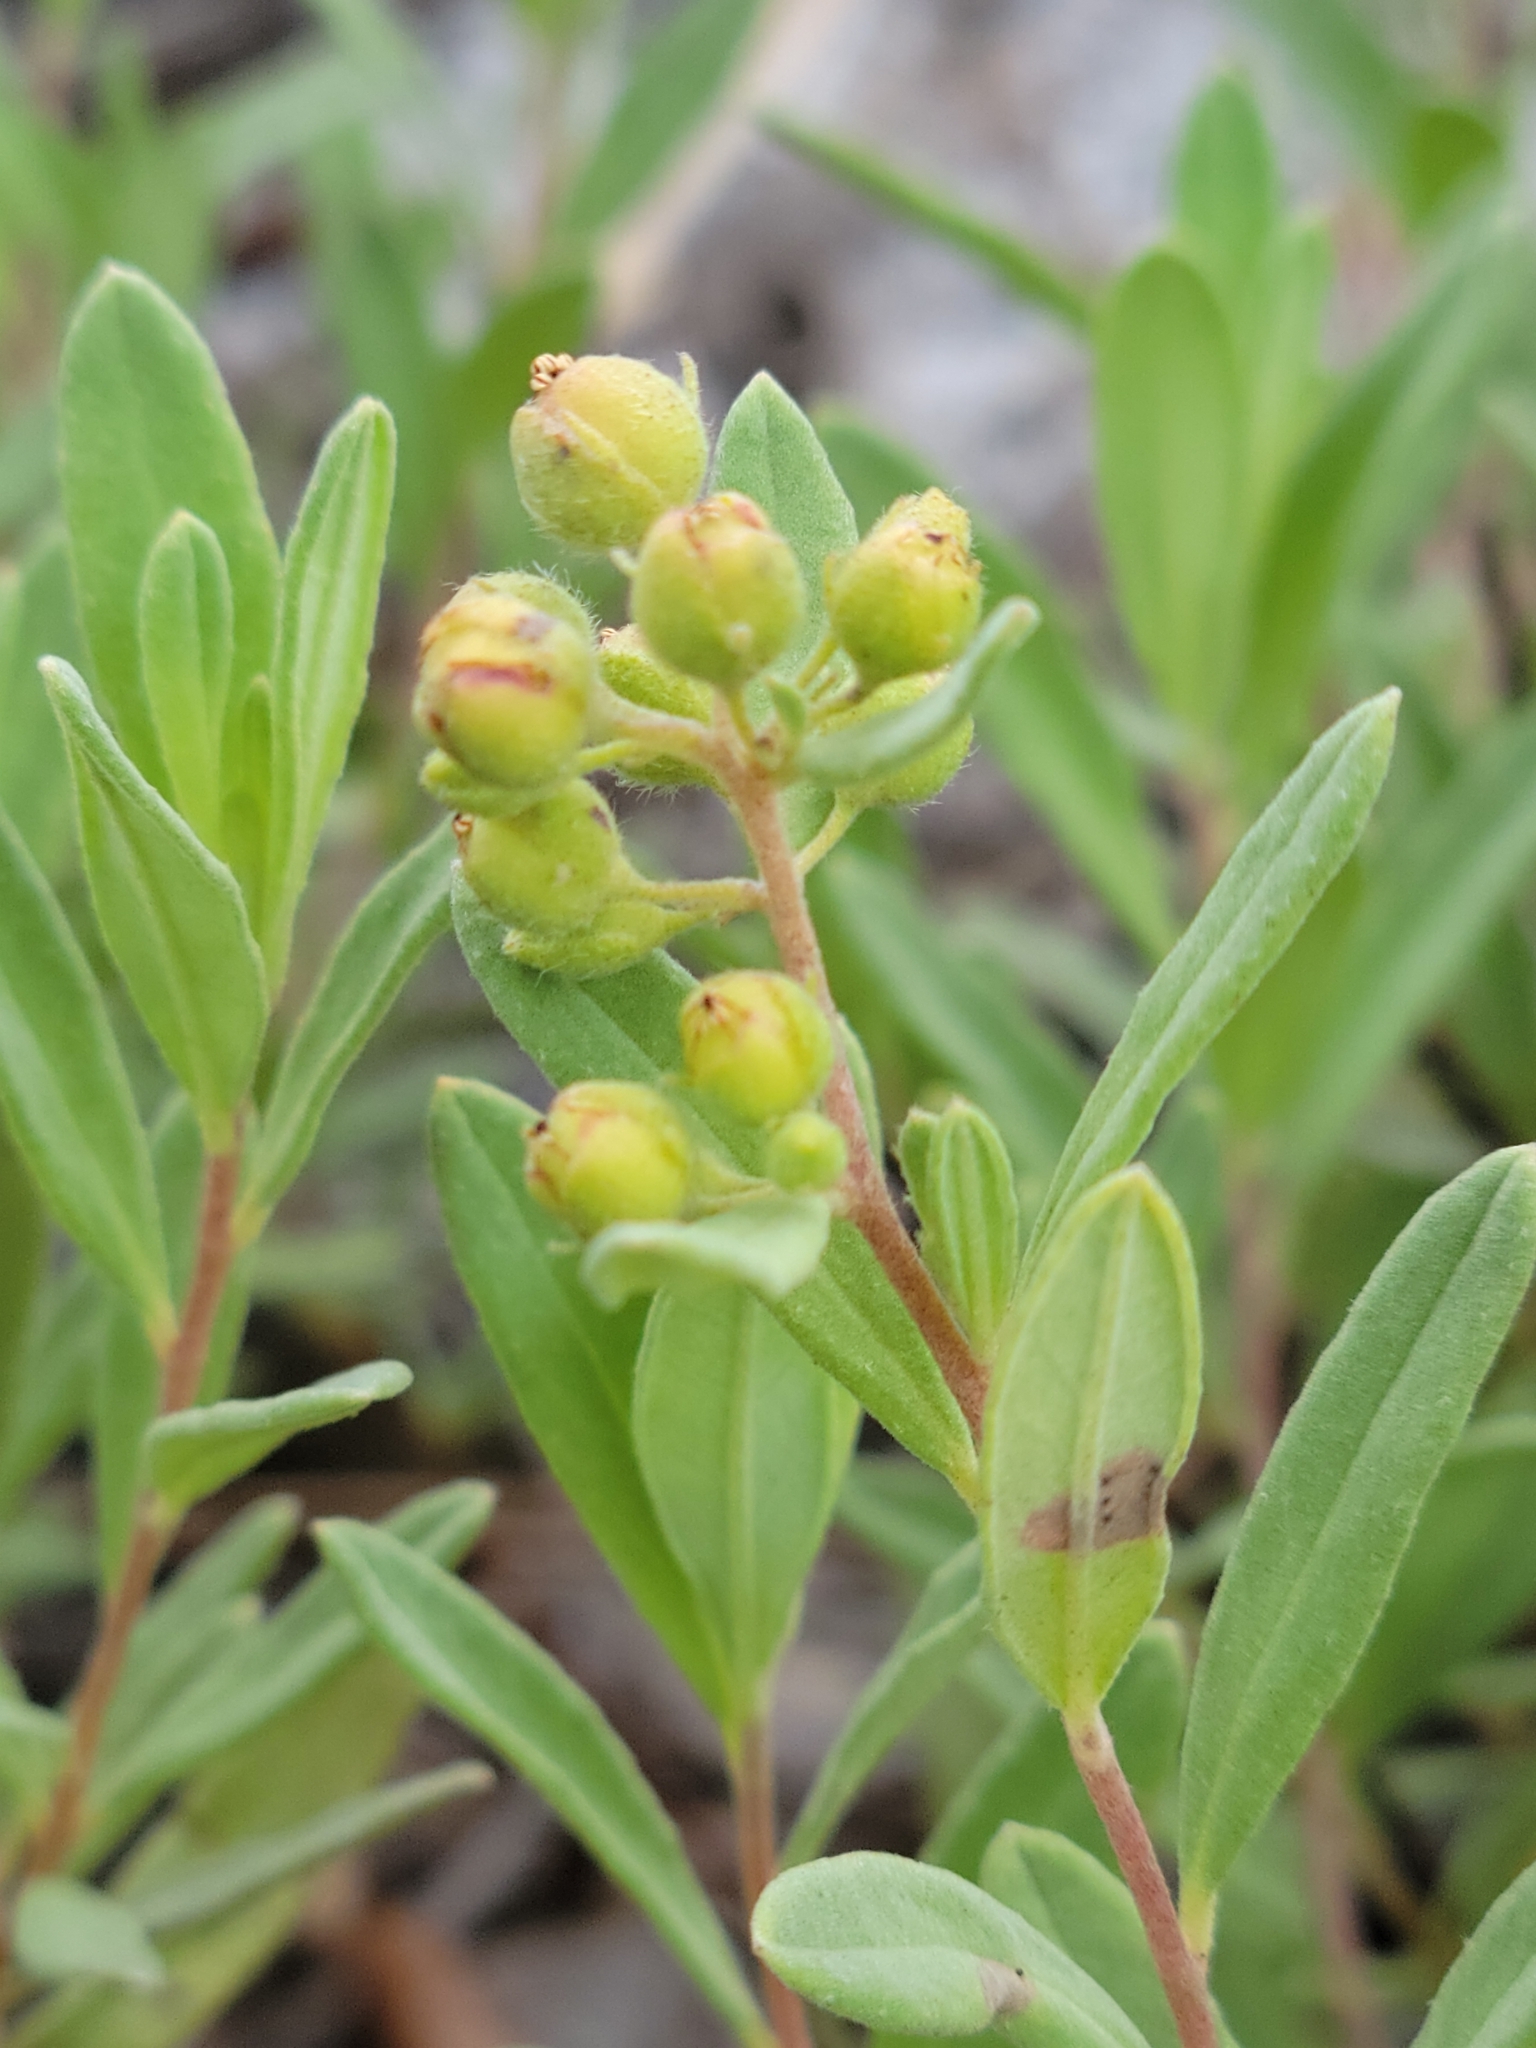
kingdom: Plantae
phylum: Tracheophyta
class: Magnoliopsida
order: Malvales
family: Cistaceae
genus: Crocanthemum
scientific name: Crocanthemum nashii
